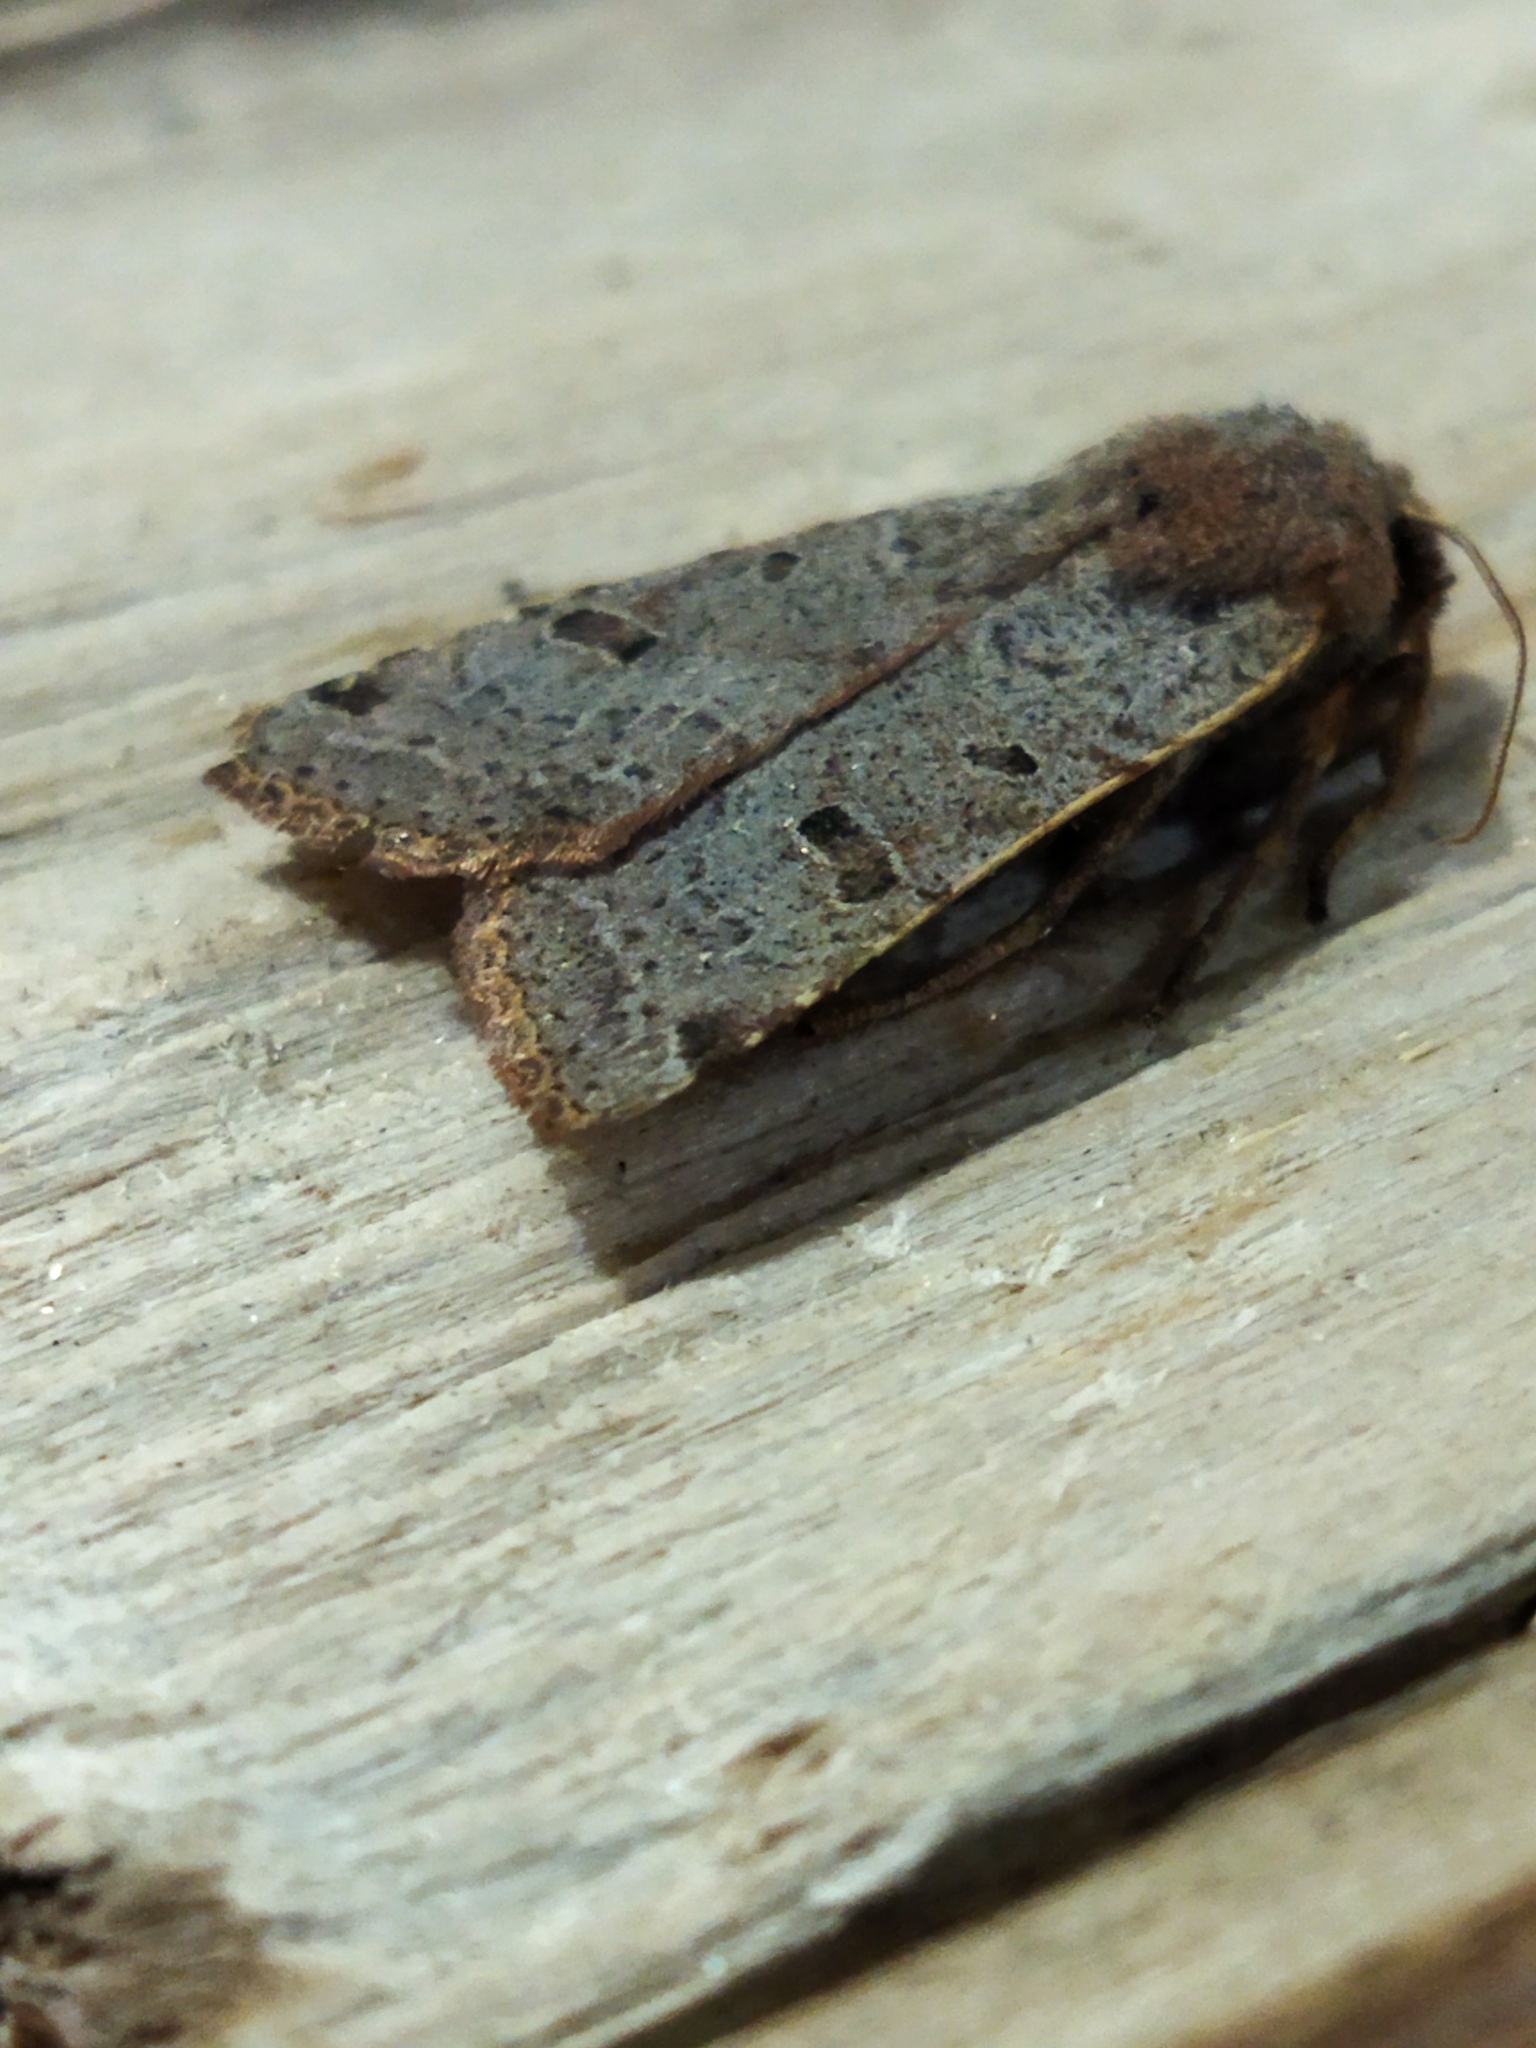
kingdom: Animalia
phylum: Arthropoda
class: Insecta
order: Lepidoptera
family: Noctuidae
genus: Agrochola
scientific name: Agrochola lychnidis
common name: Beaded chestnut
